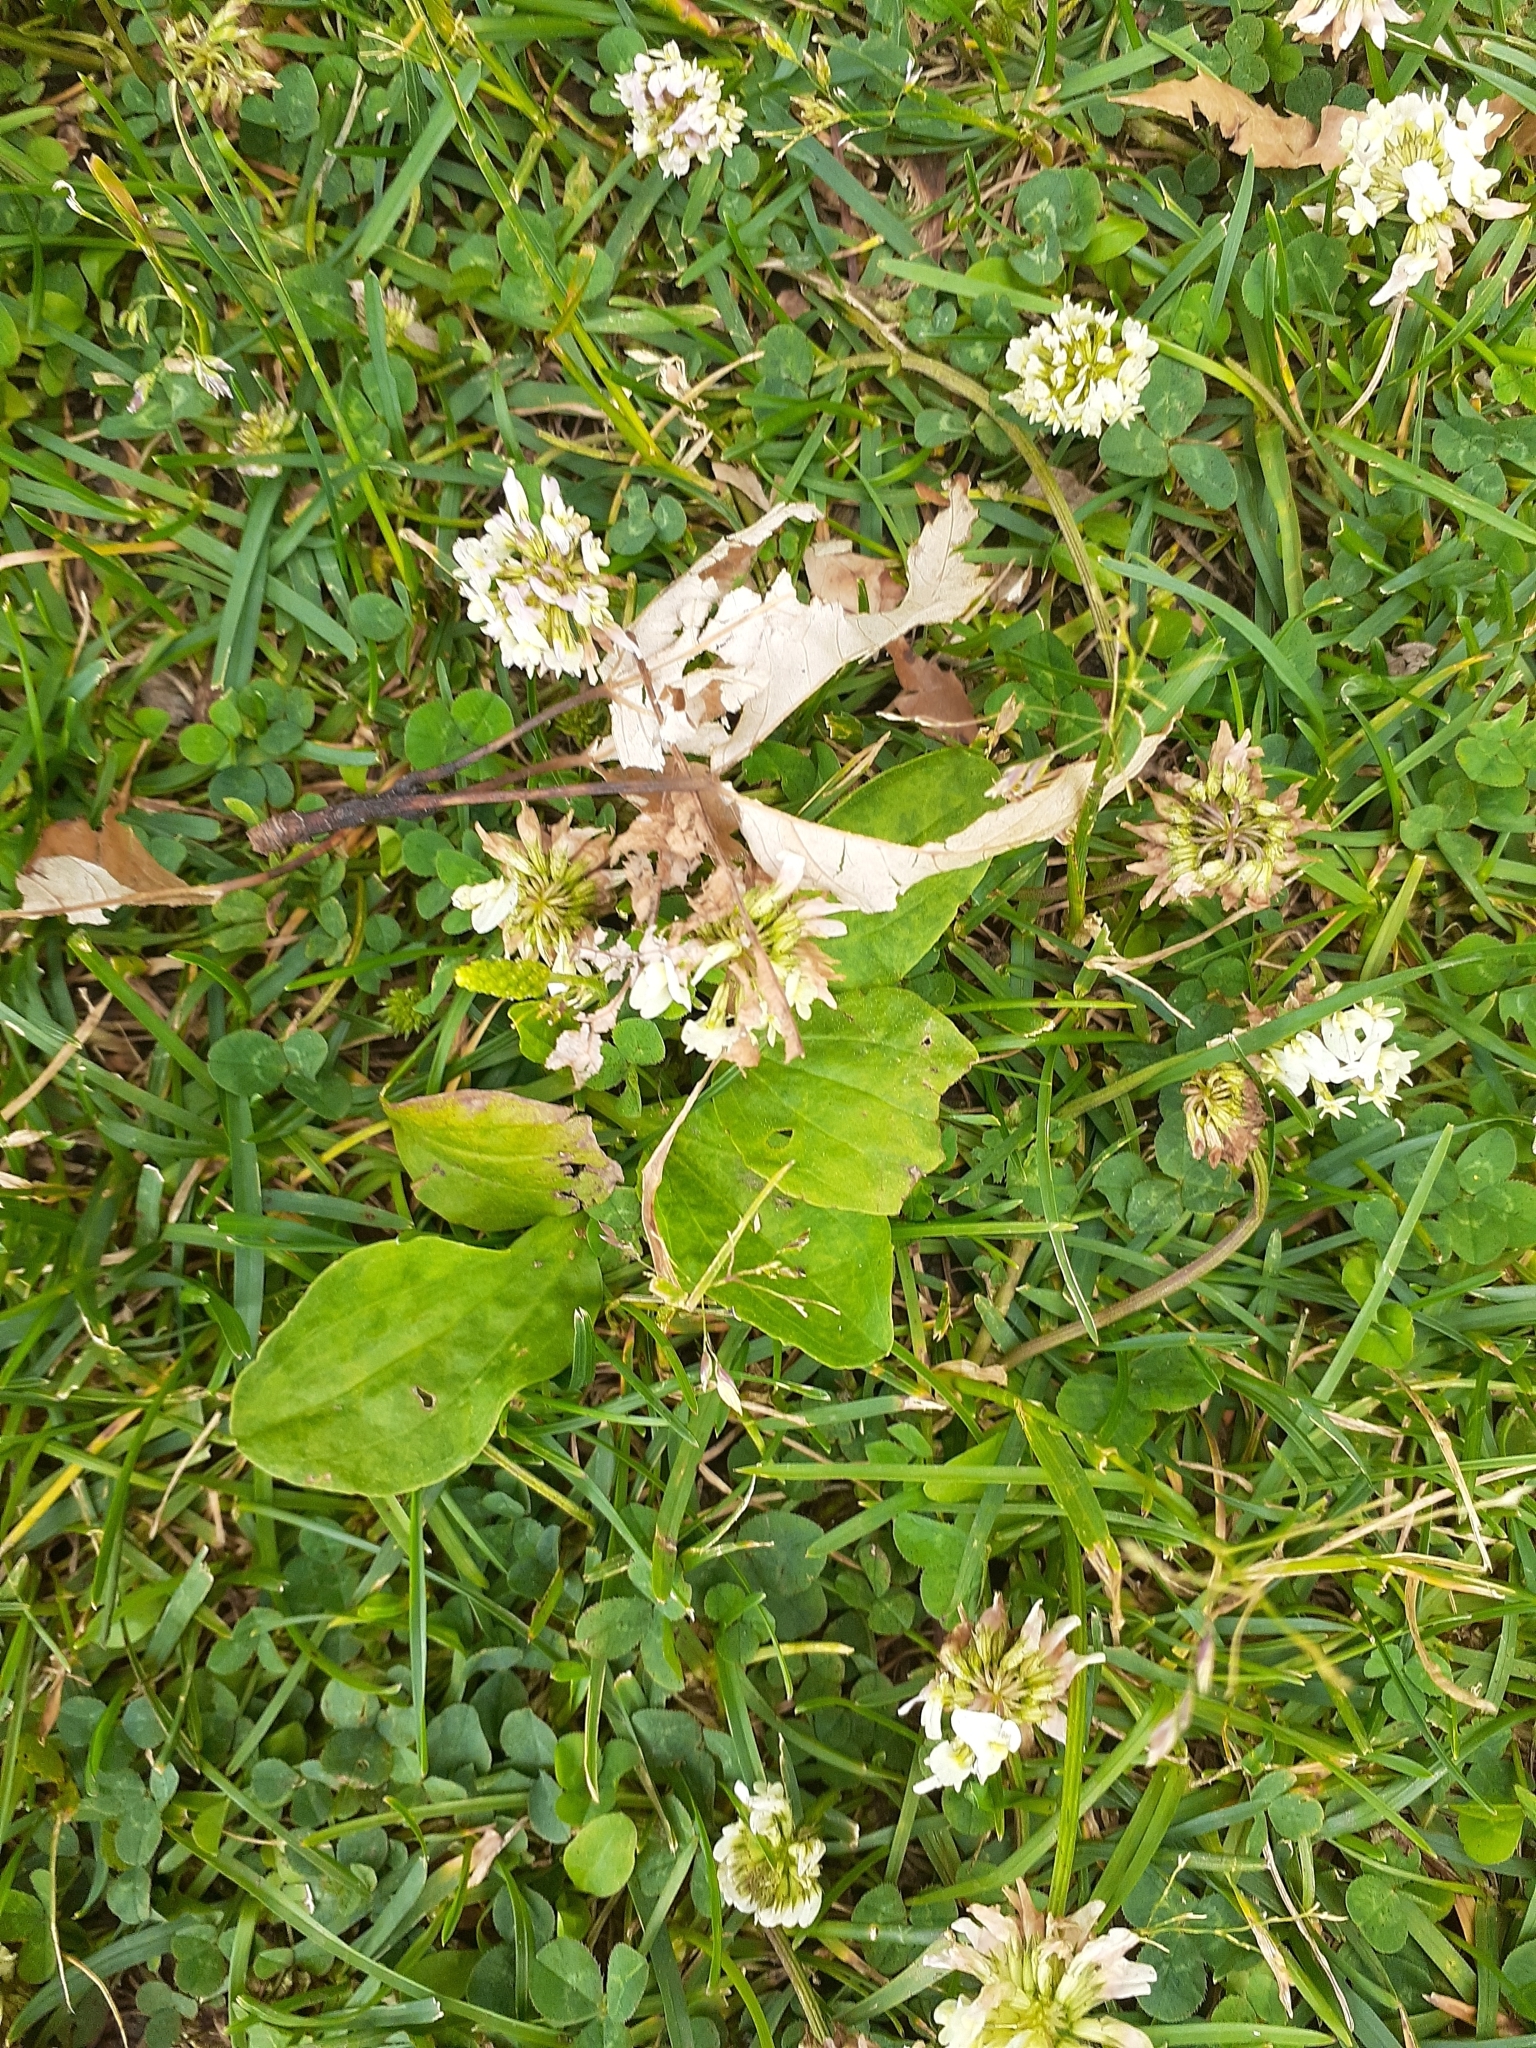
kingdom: Plantae
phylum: Tracheophyta
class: Magnoliopsida
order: Fabales
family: Fabaceae
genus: Trifolium
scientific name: Trifolium repens
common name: White clover
